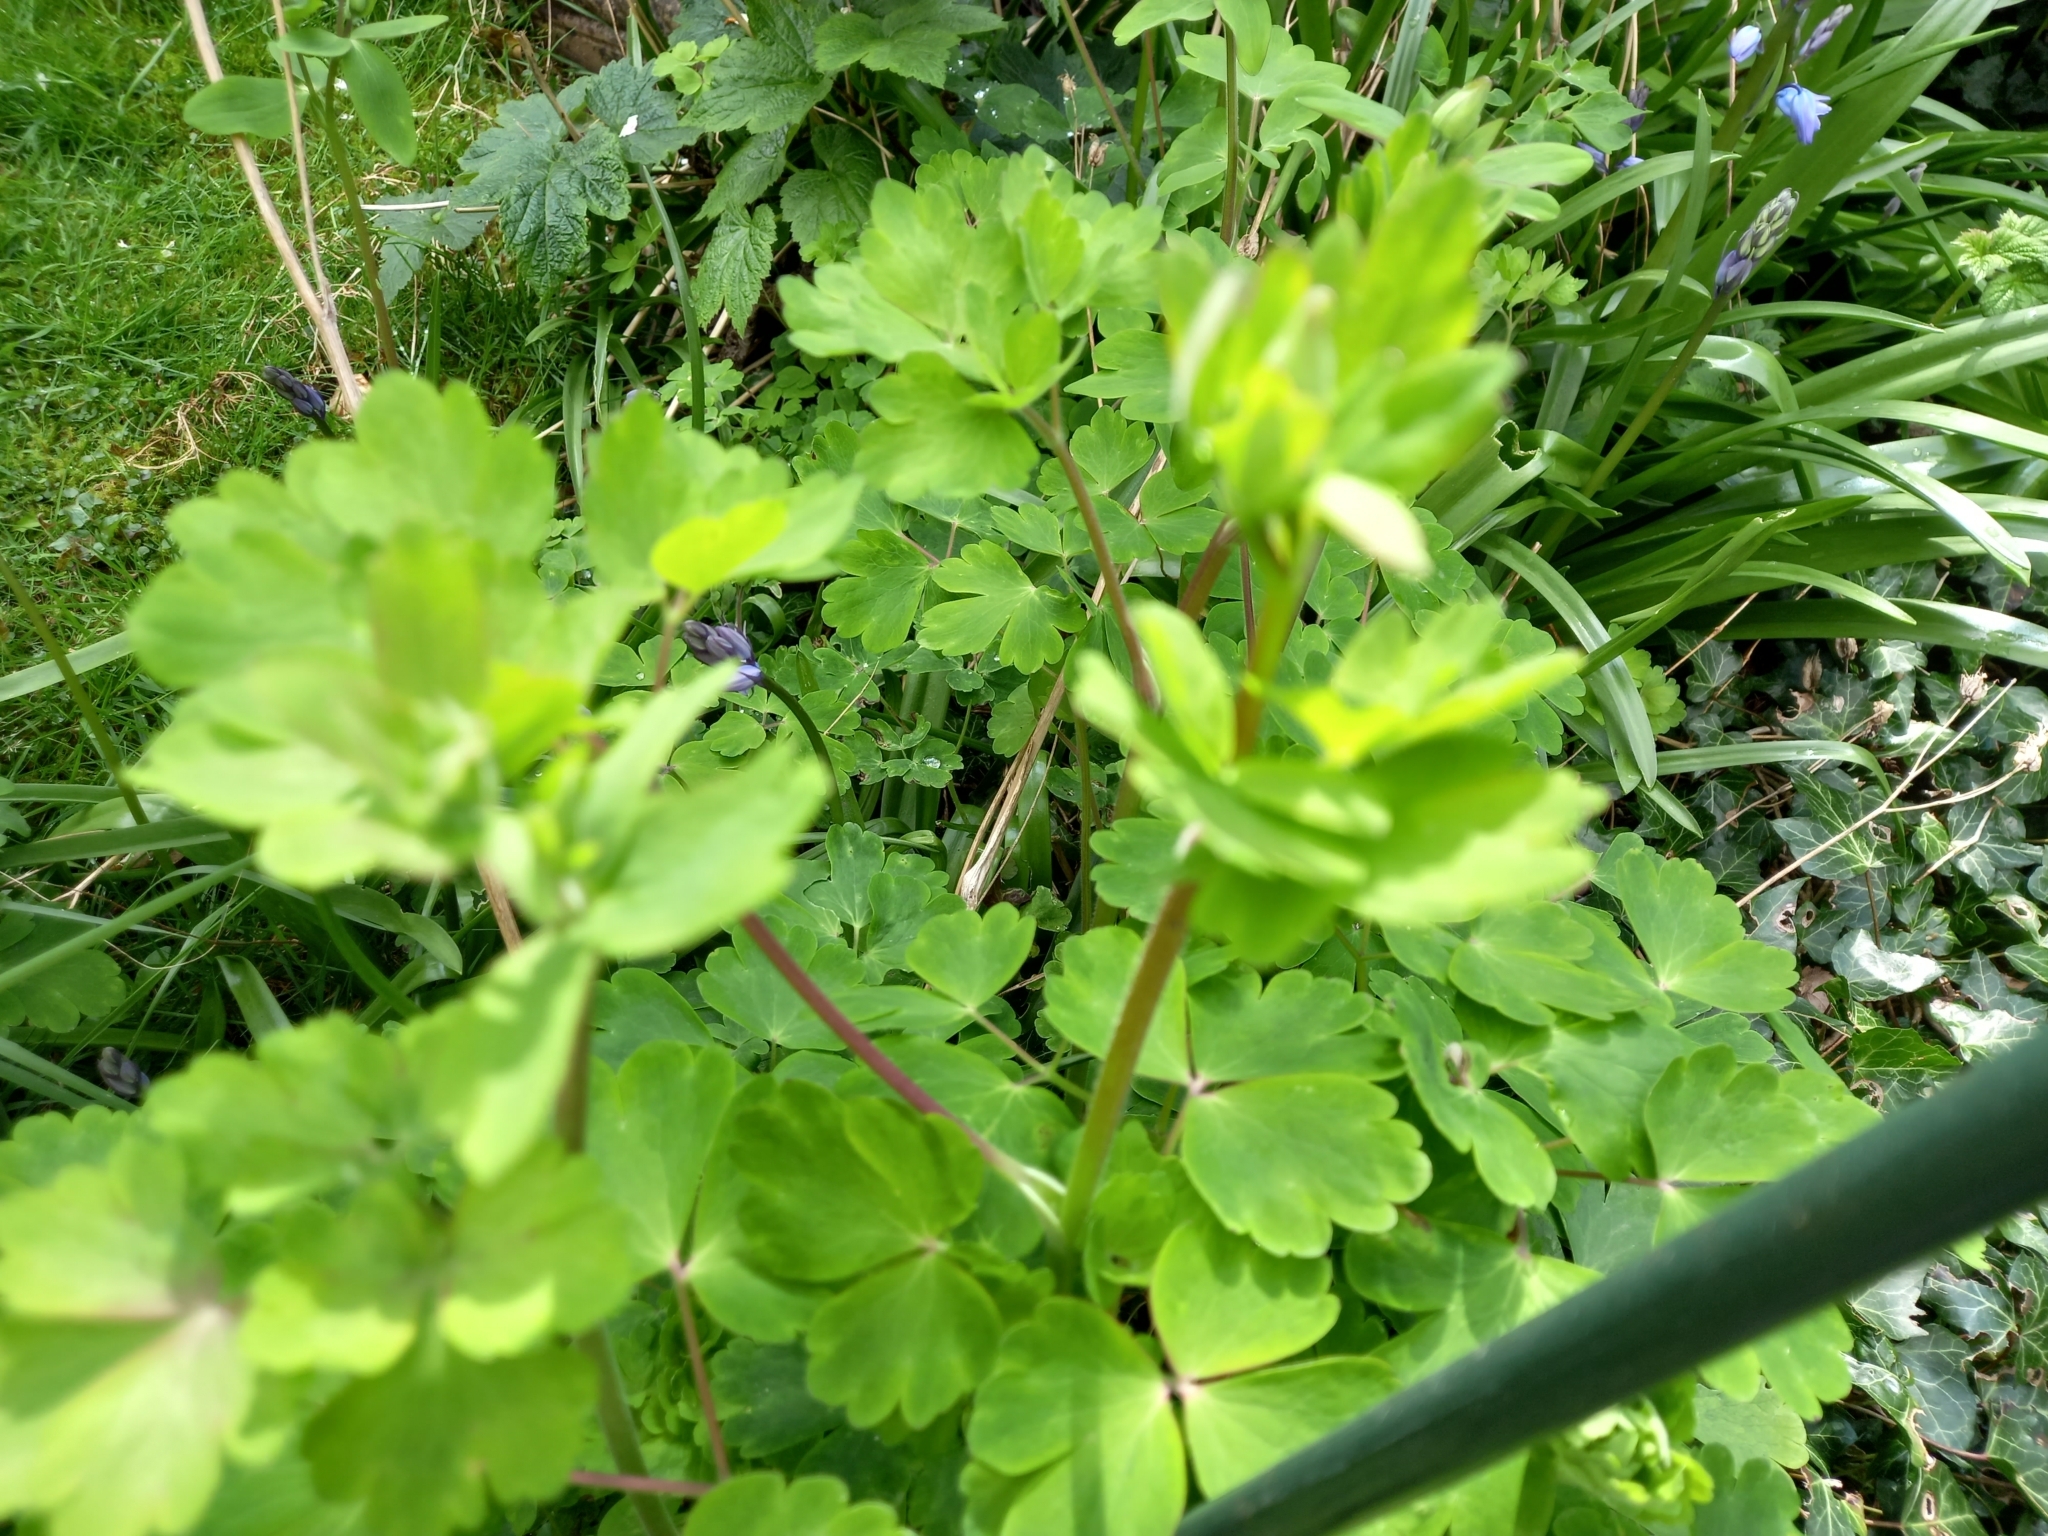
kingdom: Plantae
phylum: Tracheophyta
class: Magnoliopsida
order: Ranunculales
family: Ranunculaceae
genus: Aquilegia
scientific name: Aquilegia vulgaris
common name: Columbine
